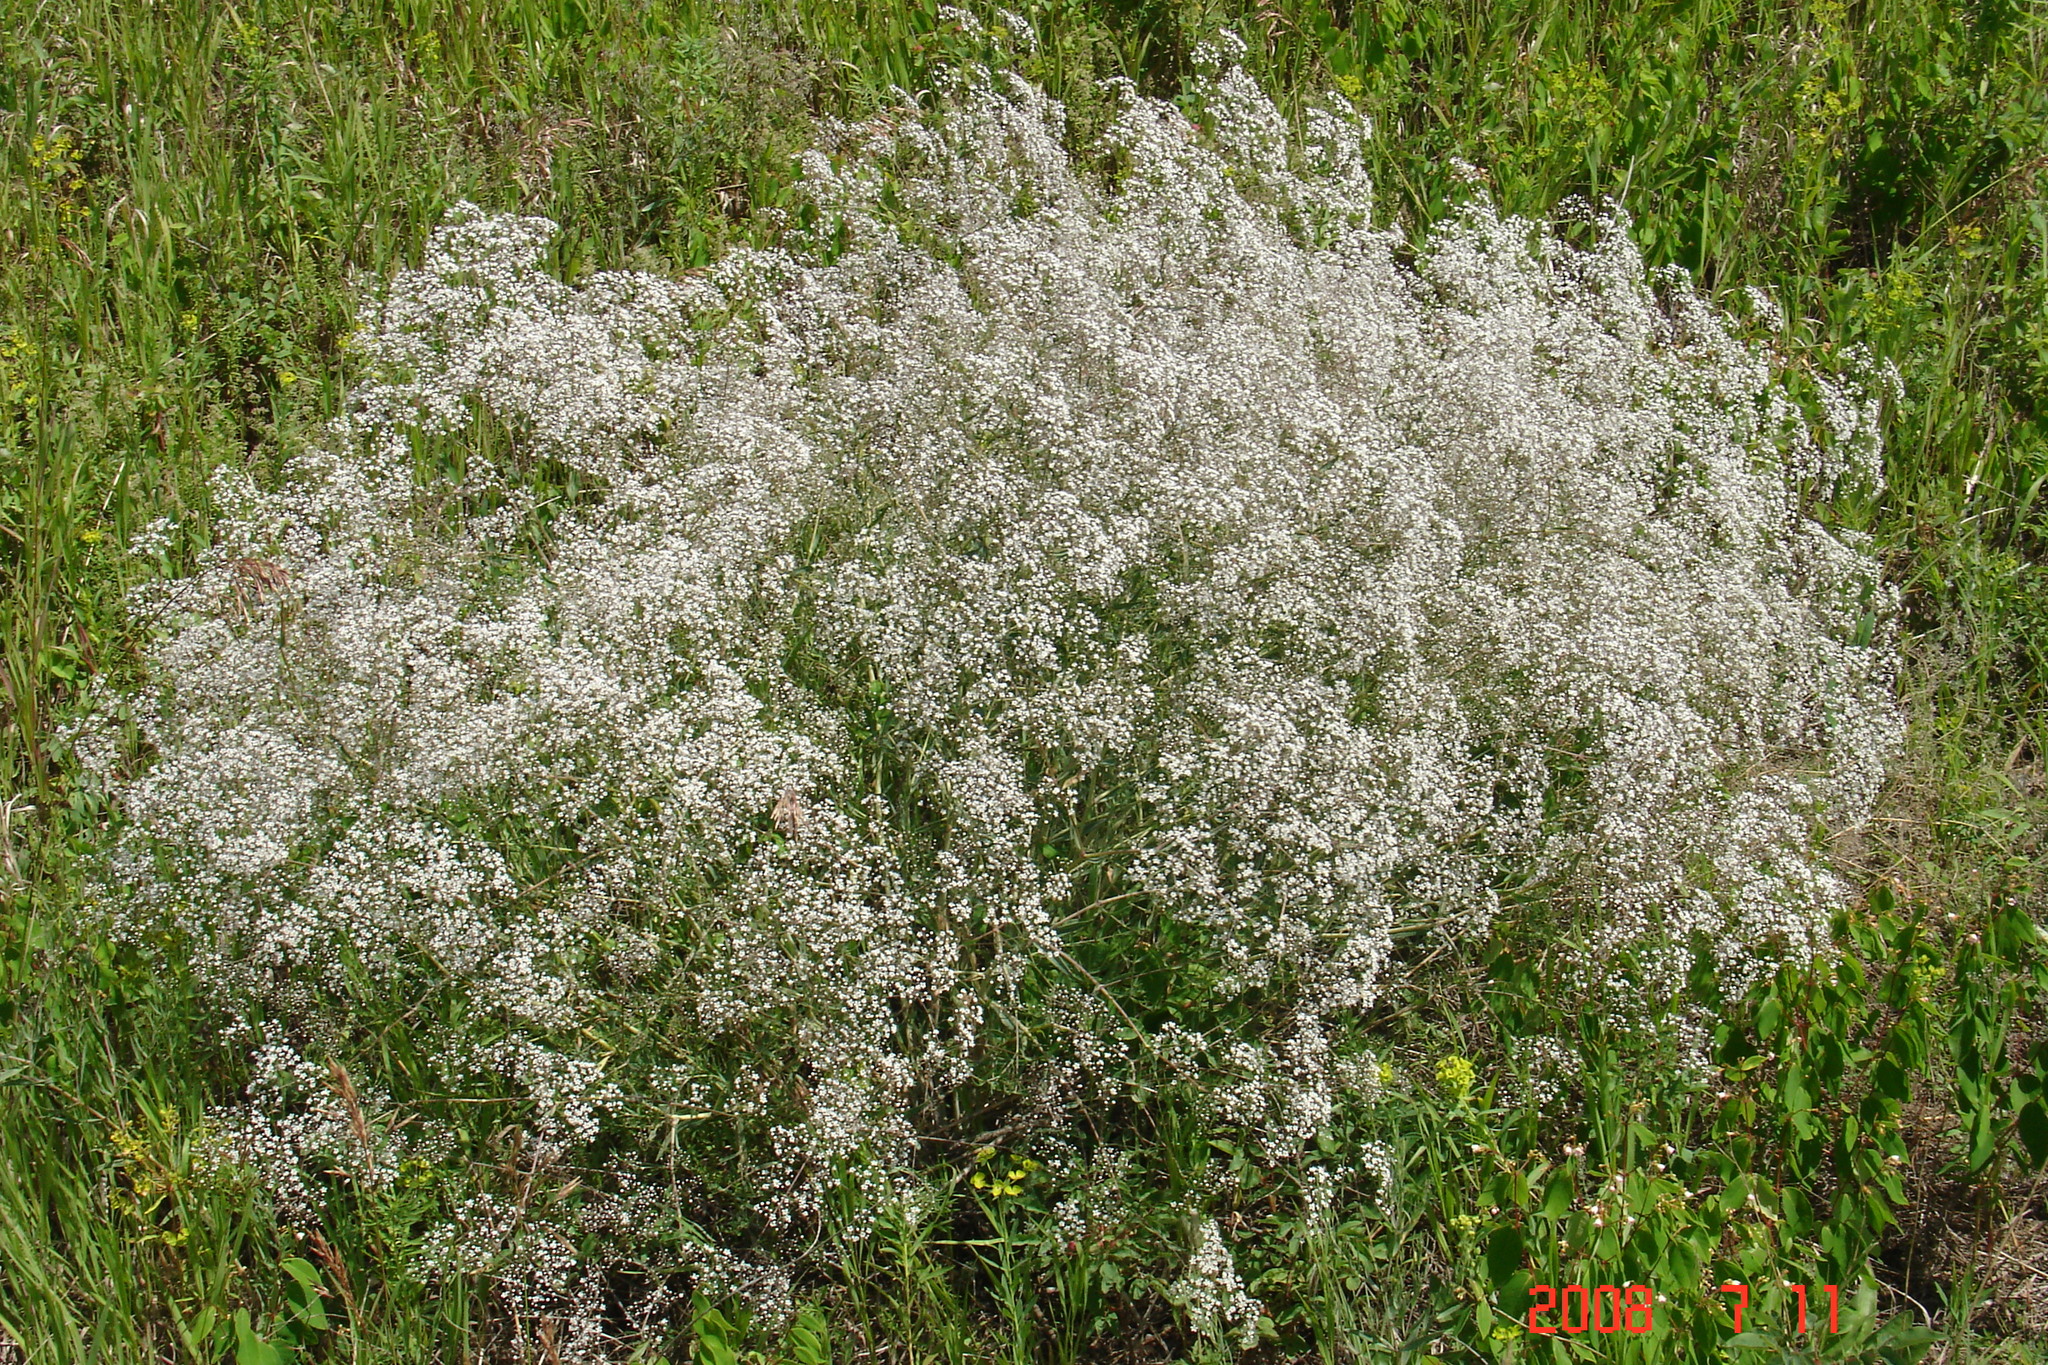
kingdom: Plantae
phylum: Tracheophyta
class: Magnoliopsida
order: Caryophyllales
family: Caryophyllaceae
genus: Gypsophila
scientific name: Gypsophila paniculata
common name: Baby's-breath
